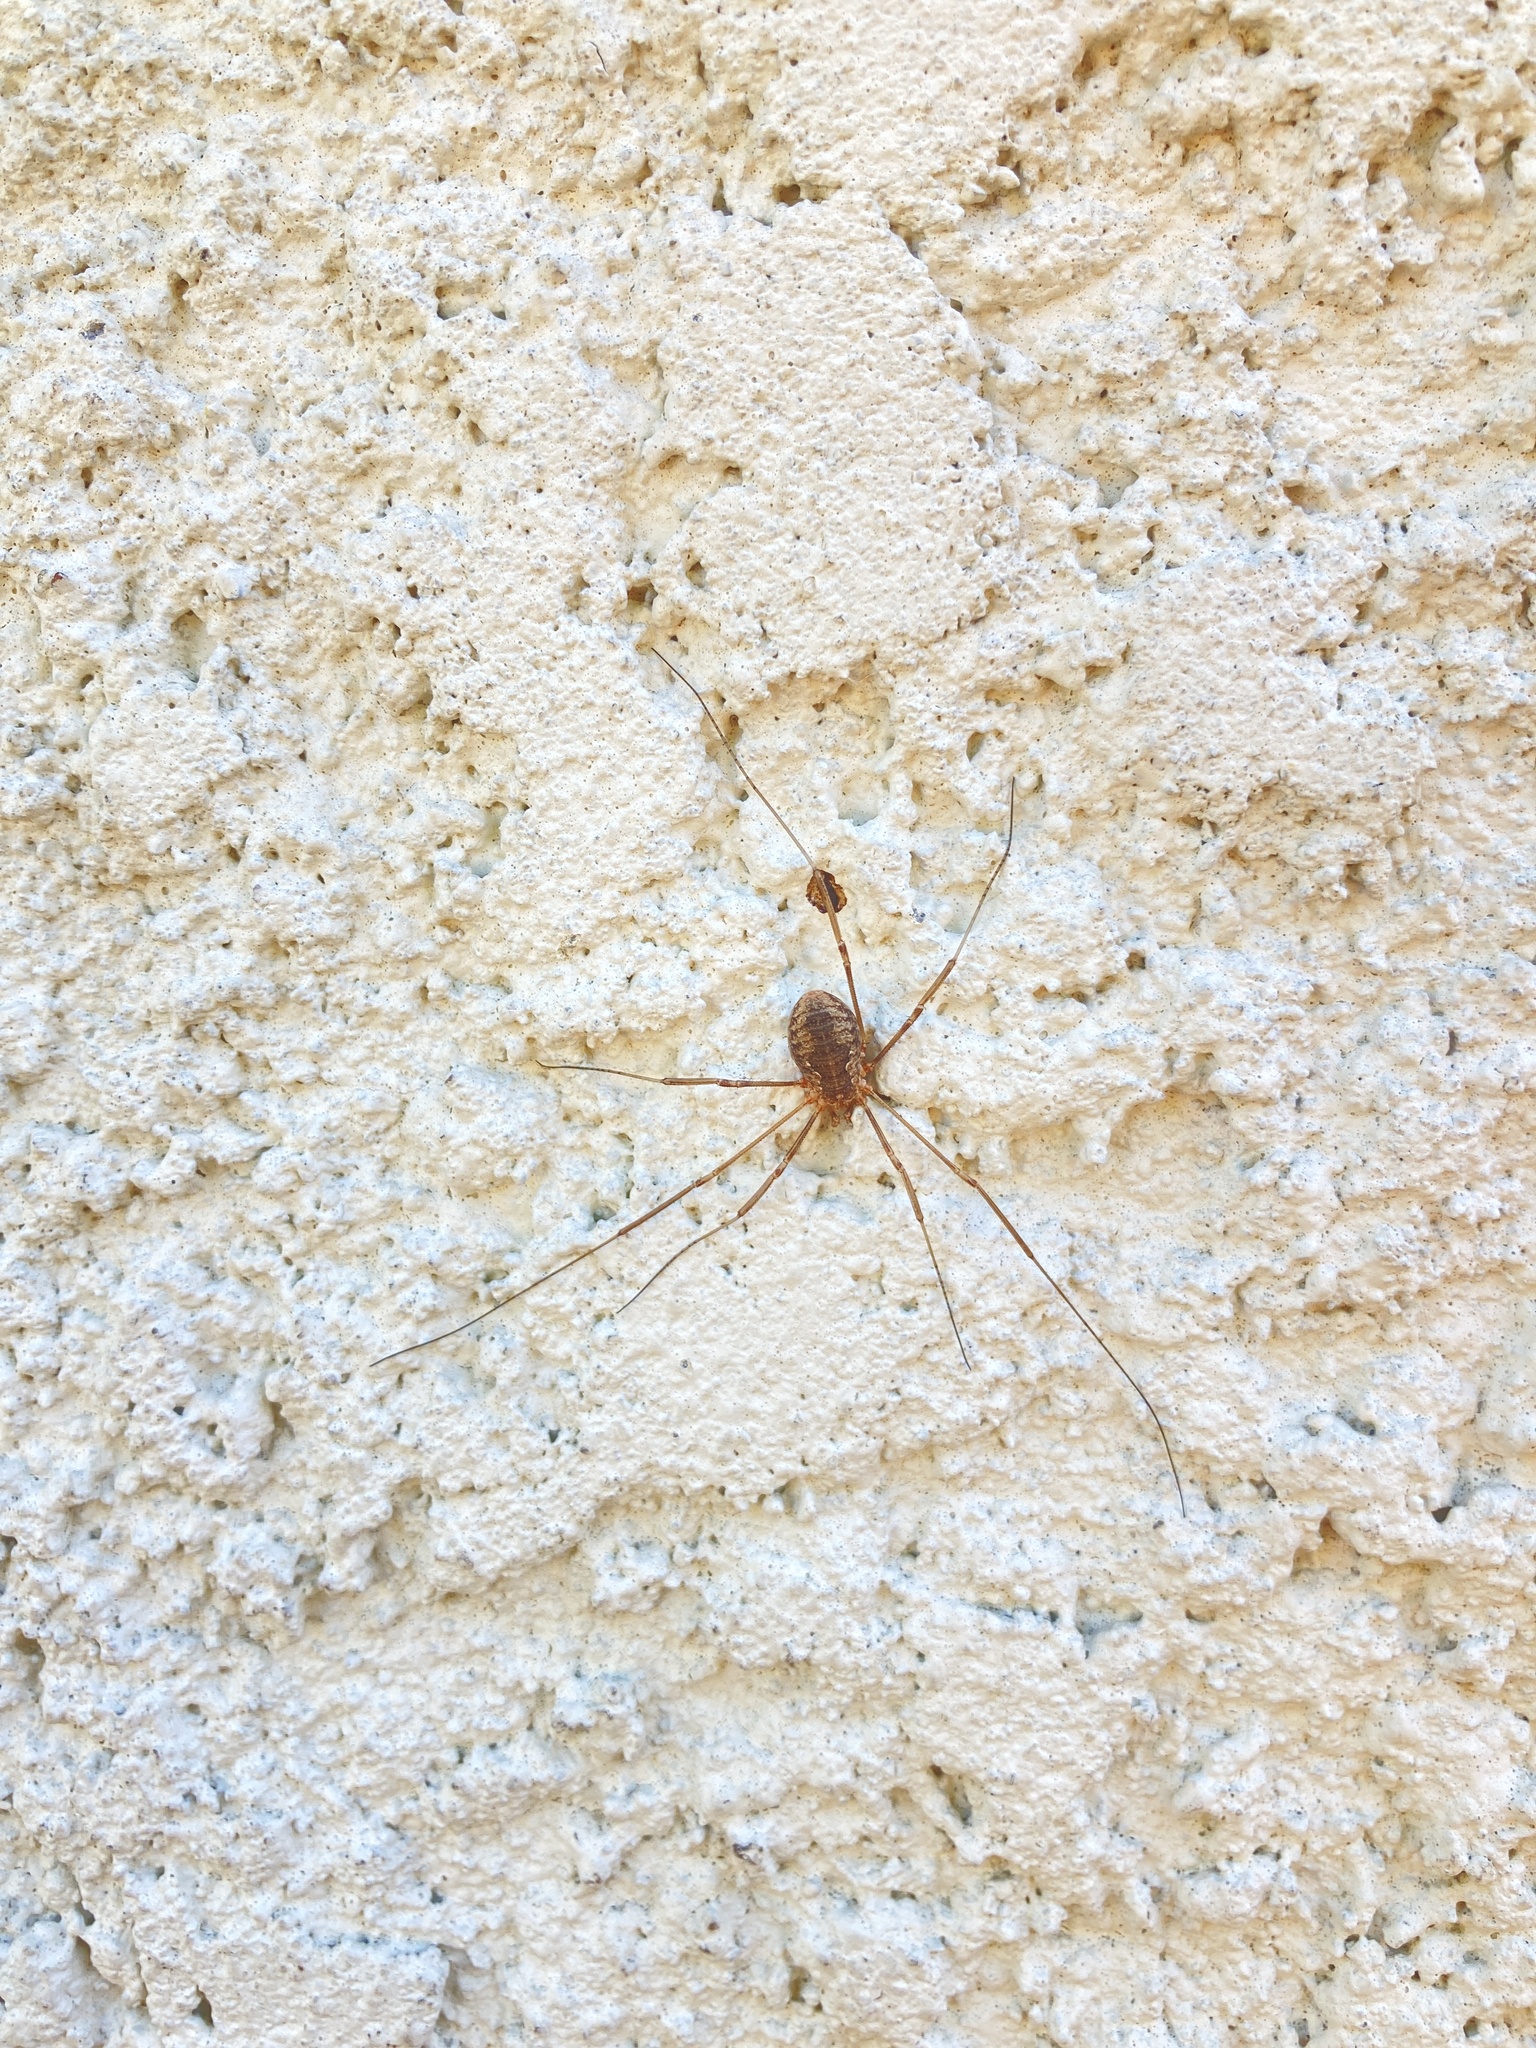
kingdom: Animalia
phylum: Arthropoda
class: Arachnida
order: Opiliones
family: Phalangiidae
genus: Phalangium
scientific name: Phalangium opilio
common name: Daddy longleg
